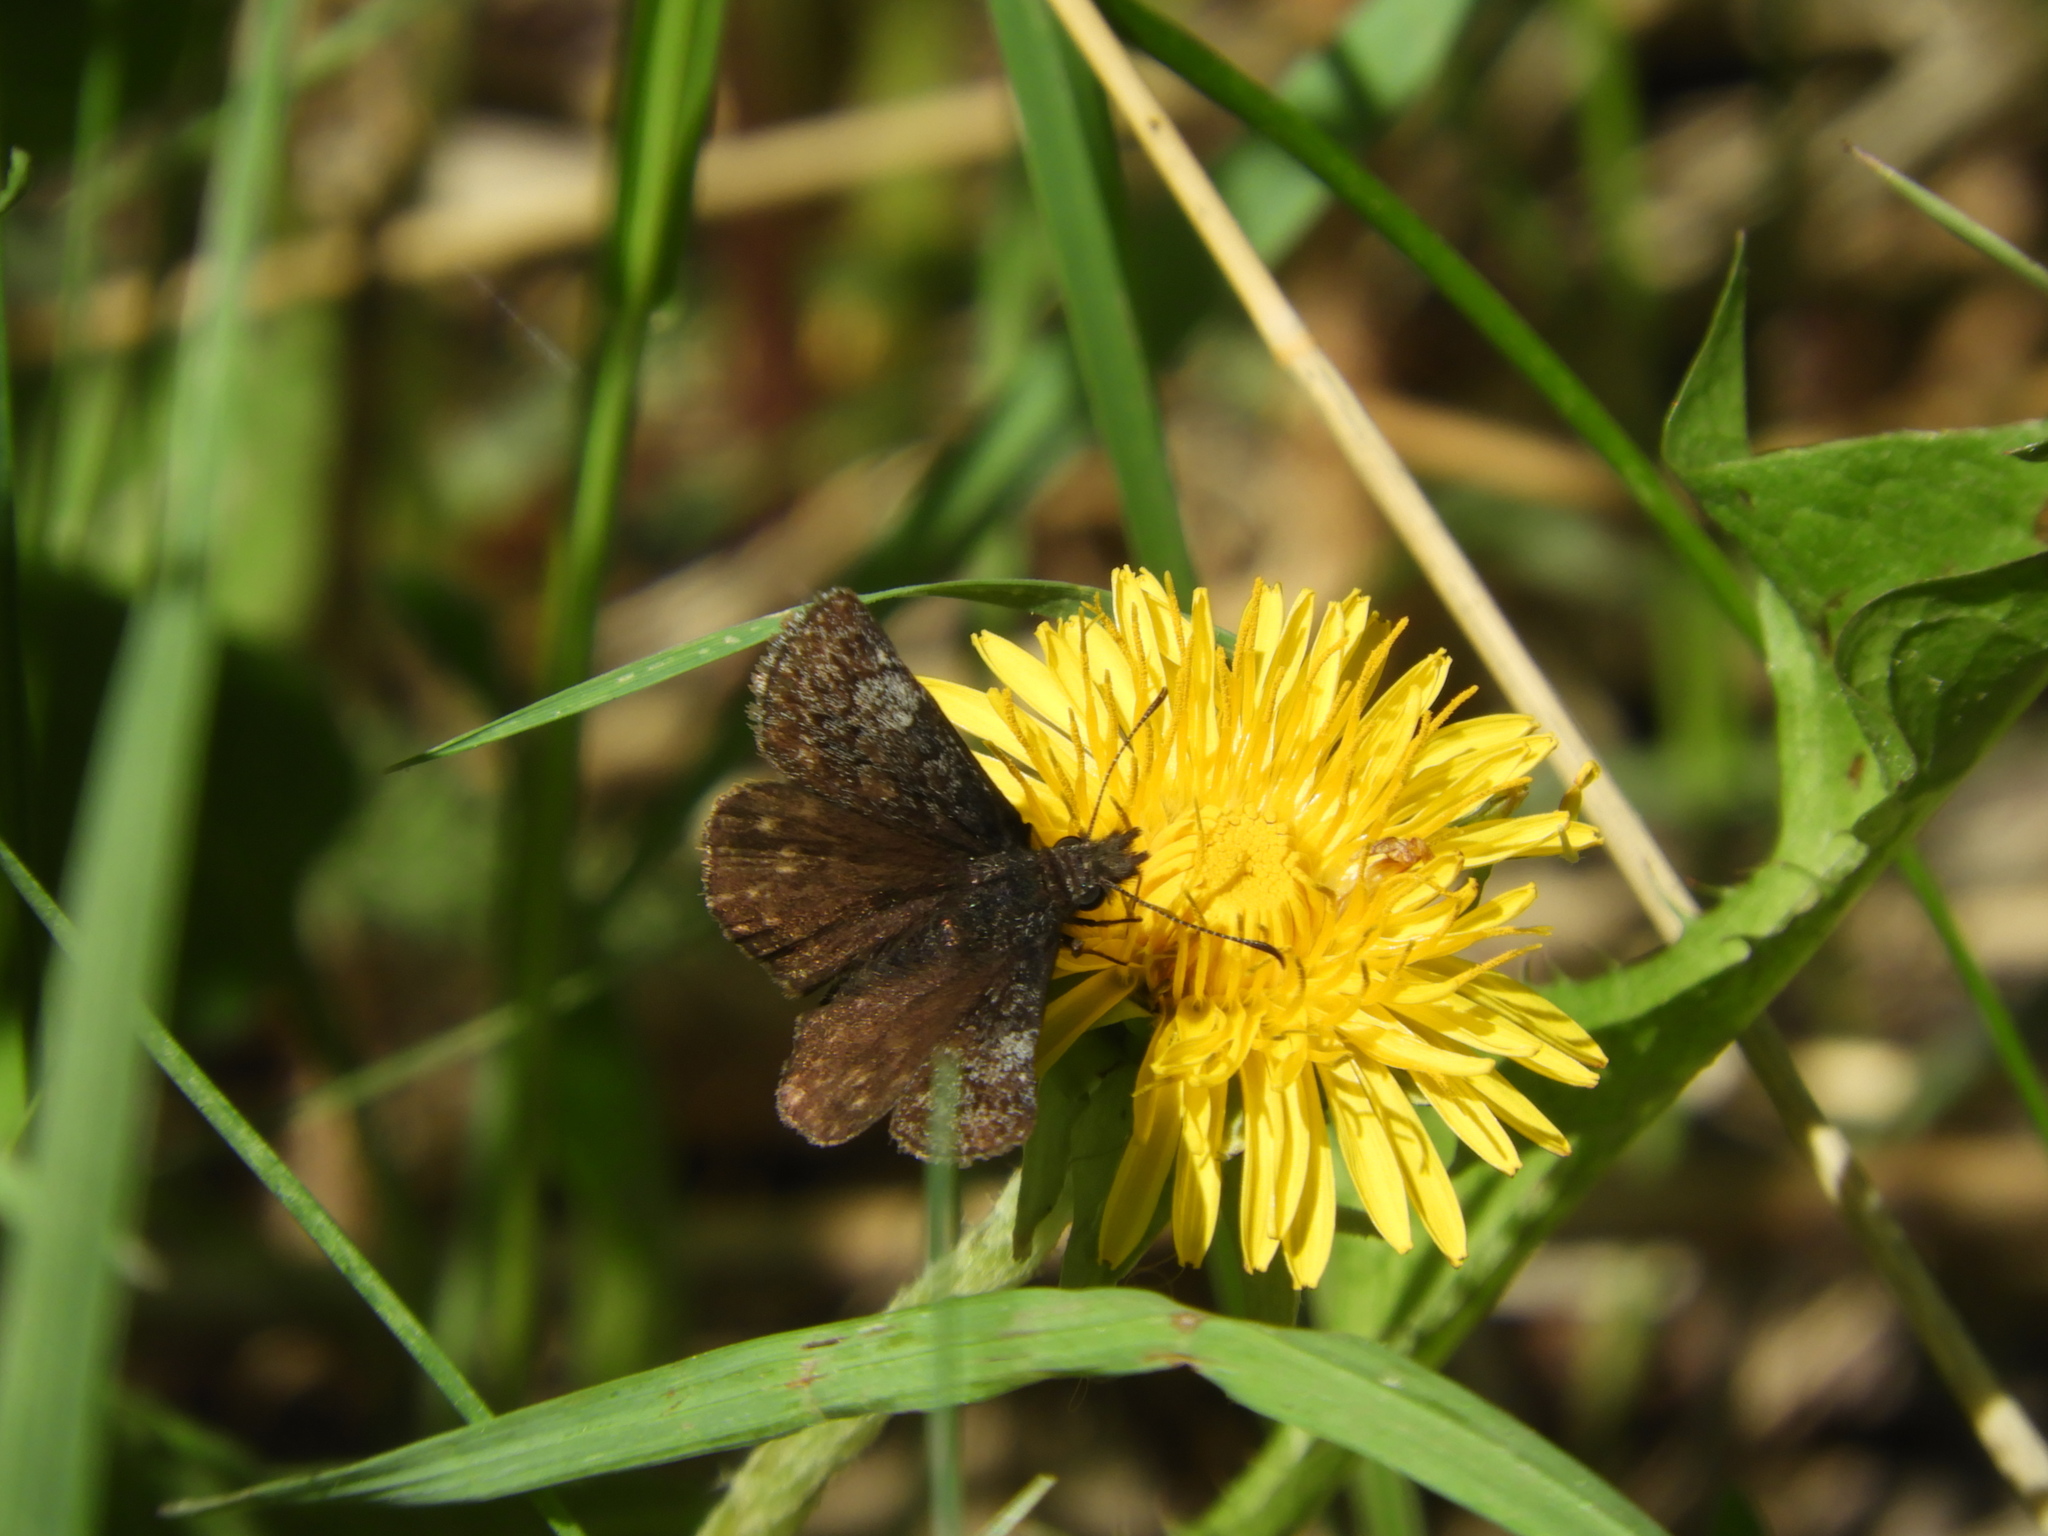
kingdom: Animalia
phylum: Arthropoda
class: Insecta
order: Lepidoptera
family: Hesperiidae
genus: Erynnis
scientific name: Erynnis icelus
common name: Dreamy duskywing
